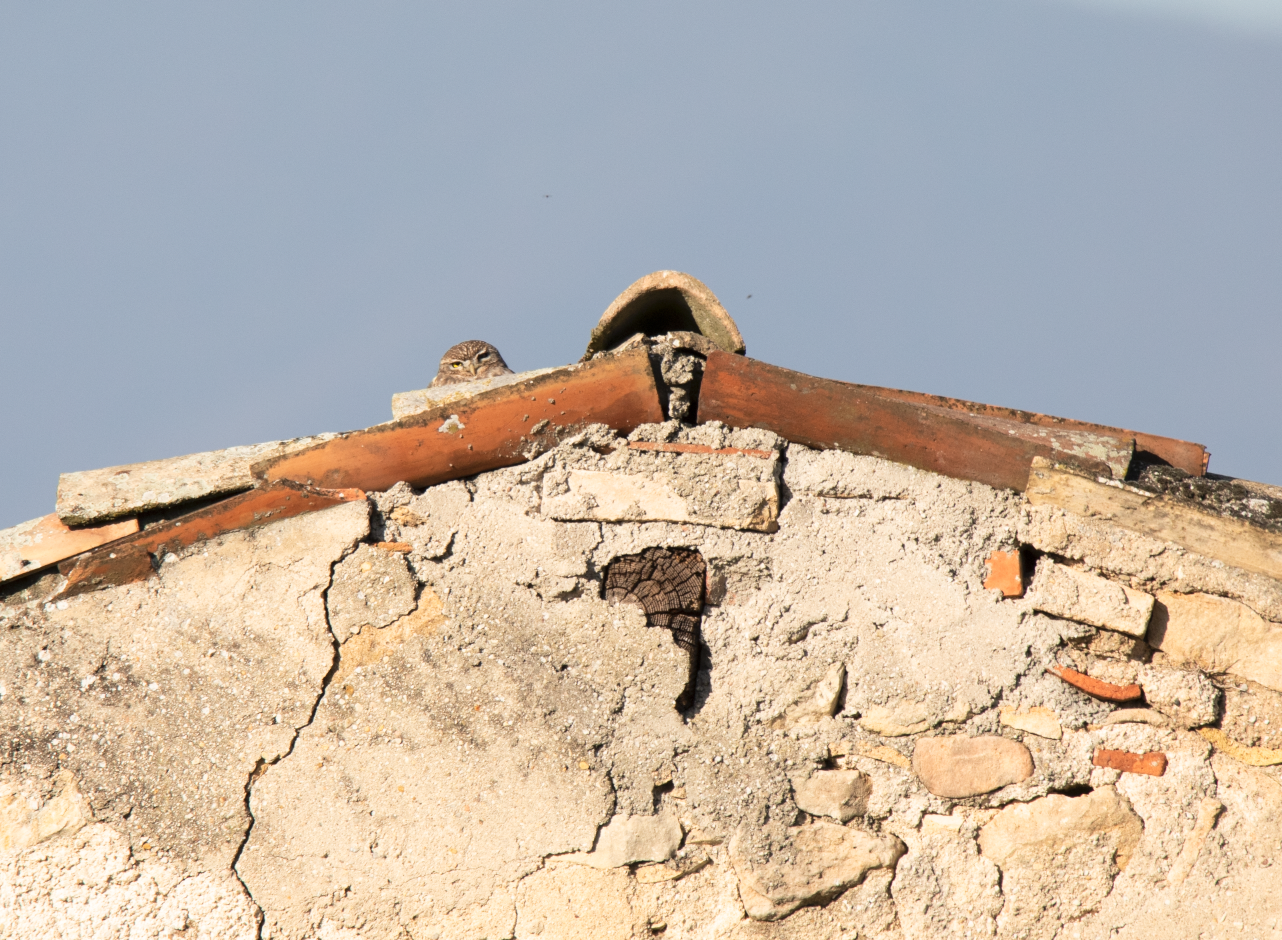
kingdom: Animalia
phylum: Chordata
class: Aves
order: Strigiformes
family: Strigidae
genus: Athene
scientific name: Athene noctua
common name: Little owl
